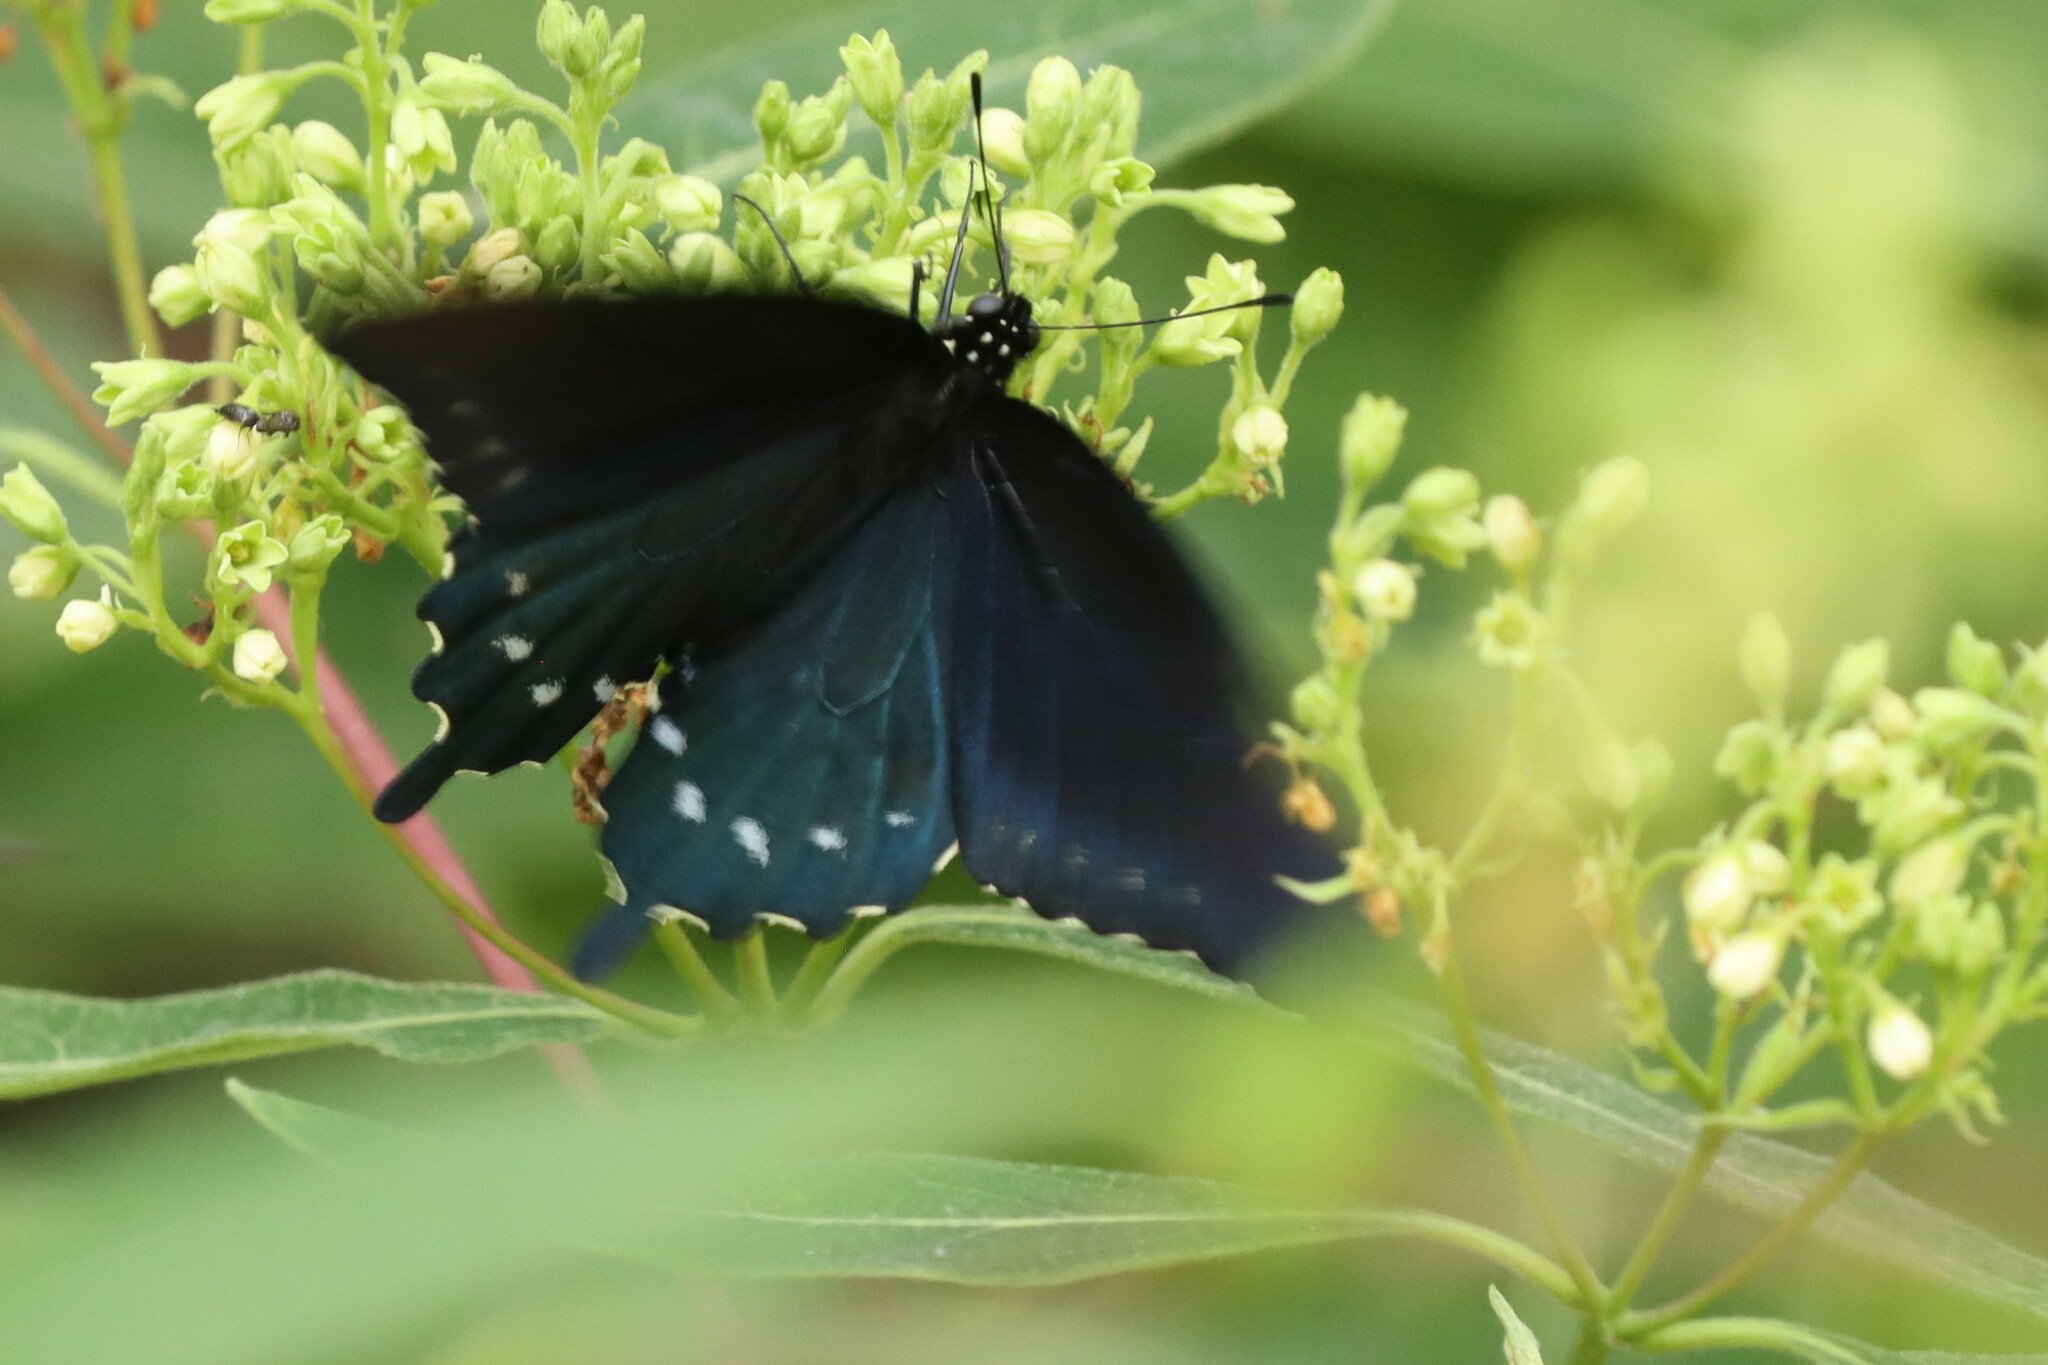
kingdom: Animalia
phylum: Arthropoda
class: Insecta
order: Lepidoptera
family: Papilionidae
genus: Battus
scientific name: Battus philenor
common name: Pipevine swallowtail
